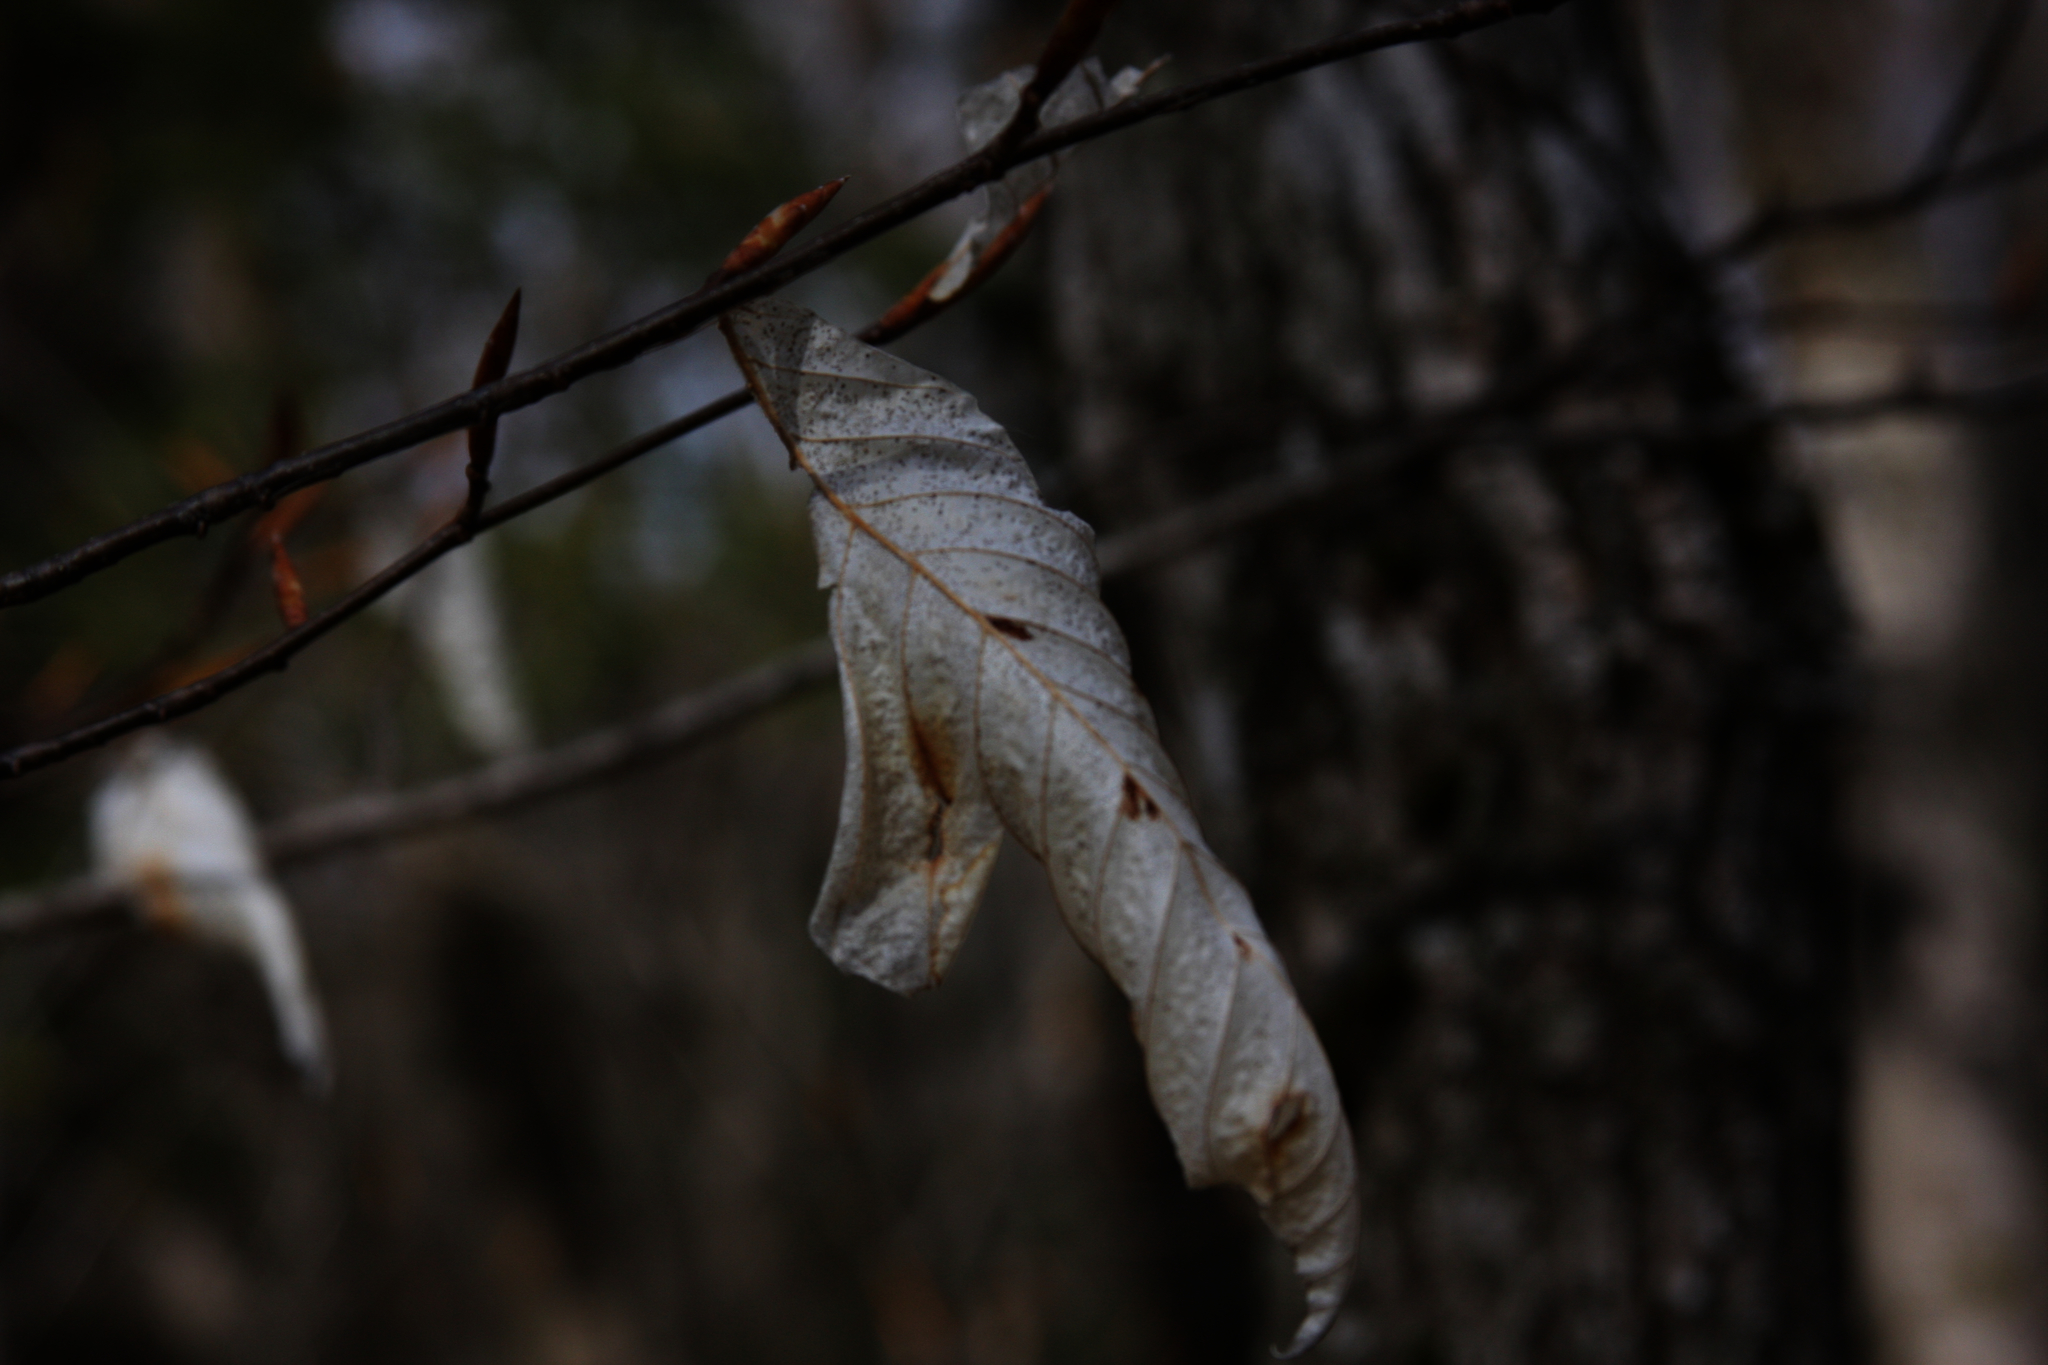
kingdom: Plantae
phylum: Tracheophyta
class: Magnoliopsida
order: Fagales
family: Fagaceae
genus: Fagus
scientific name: Fagus grandifolia
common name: American beech
